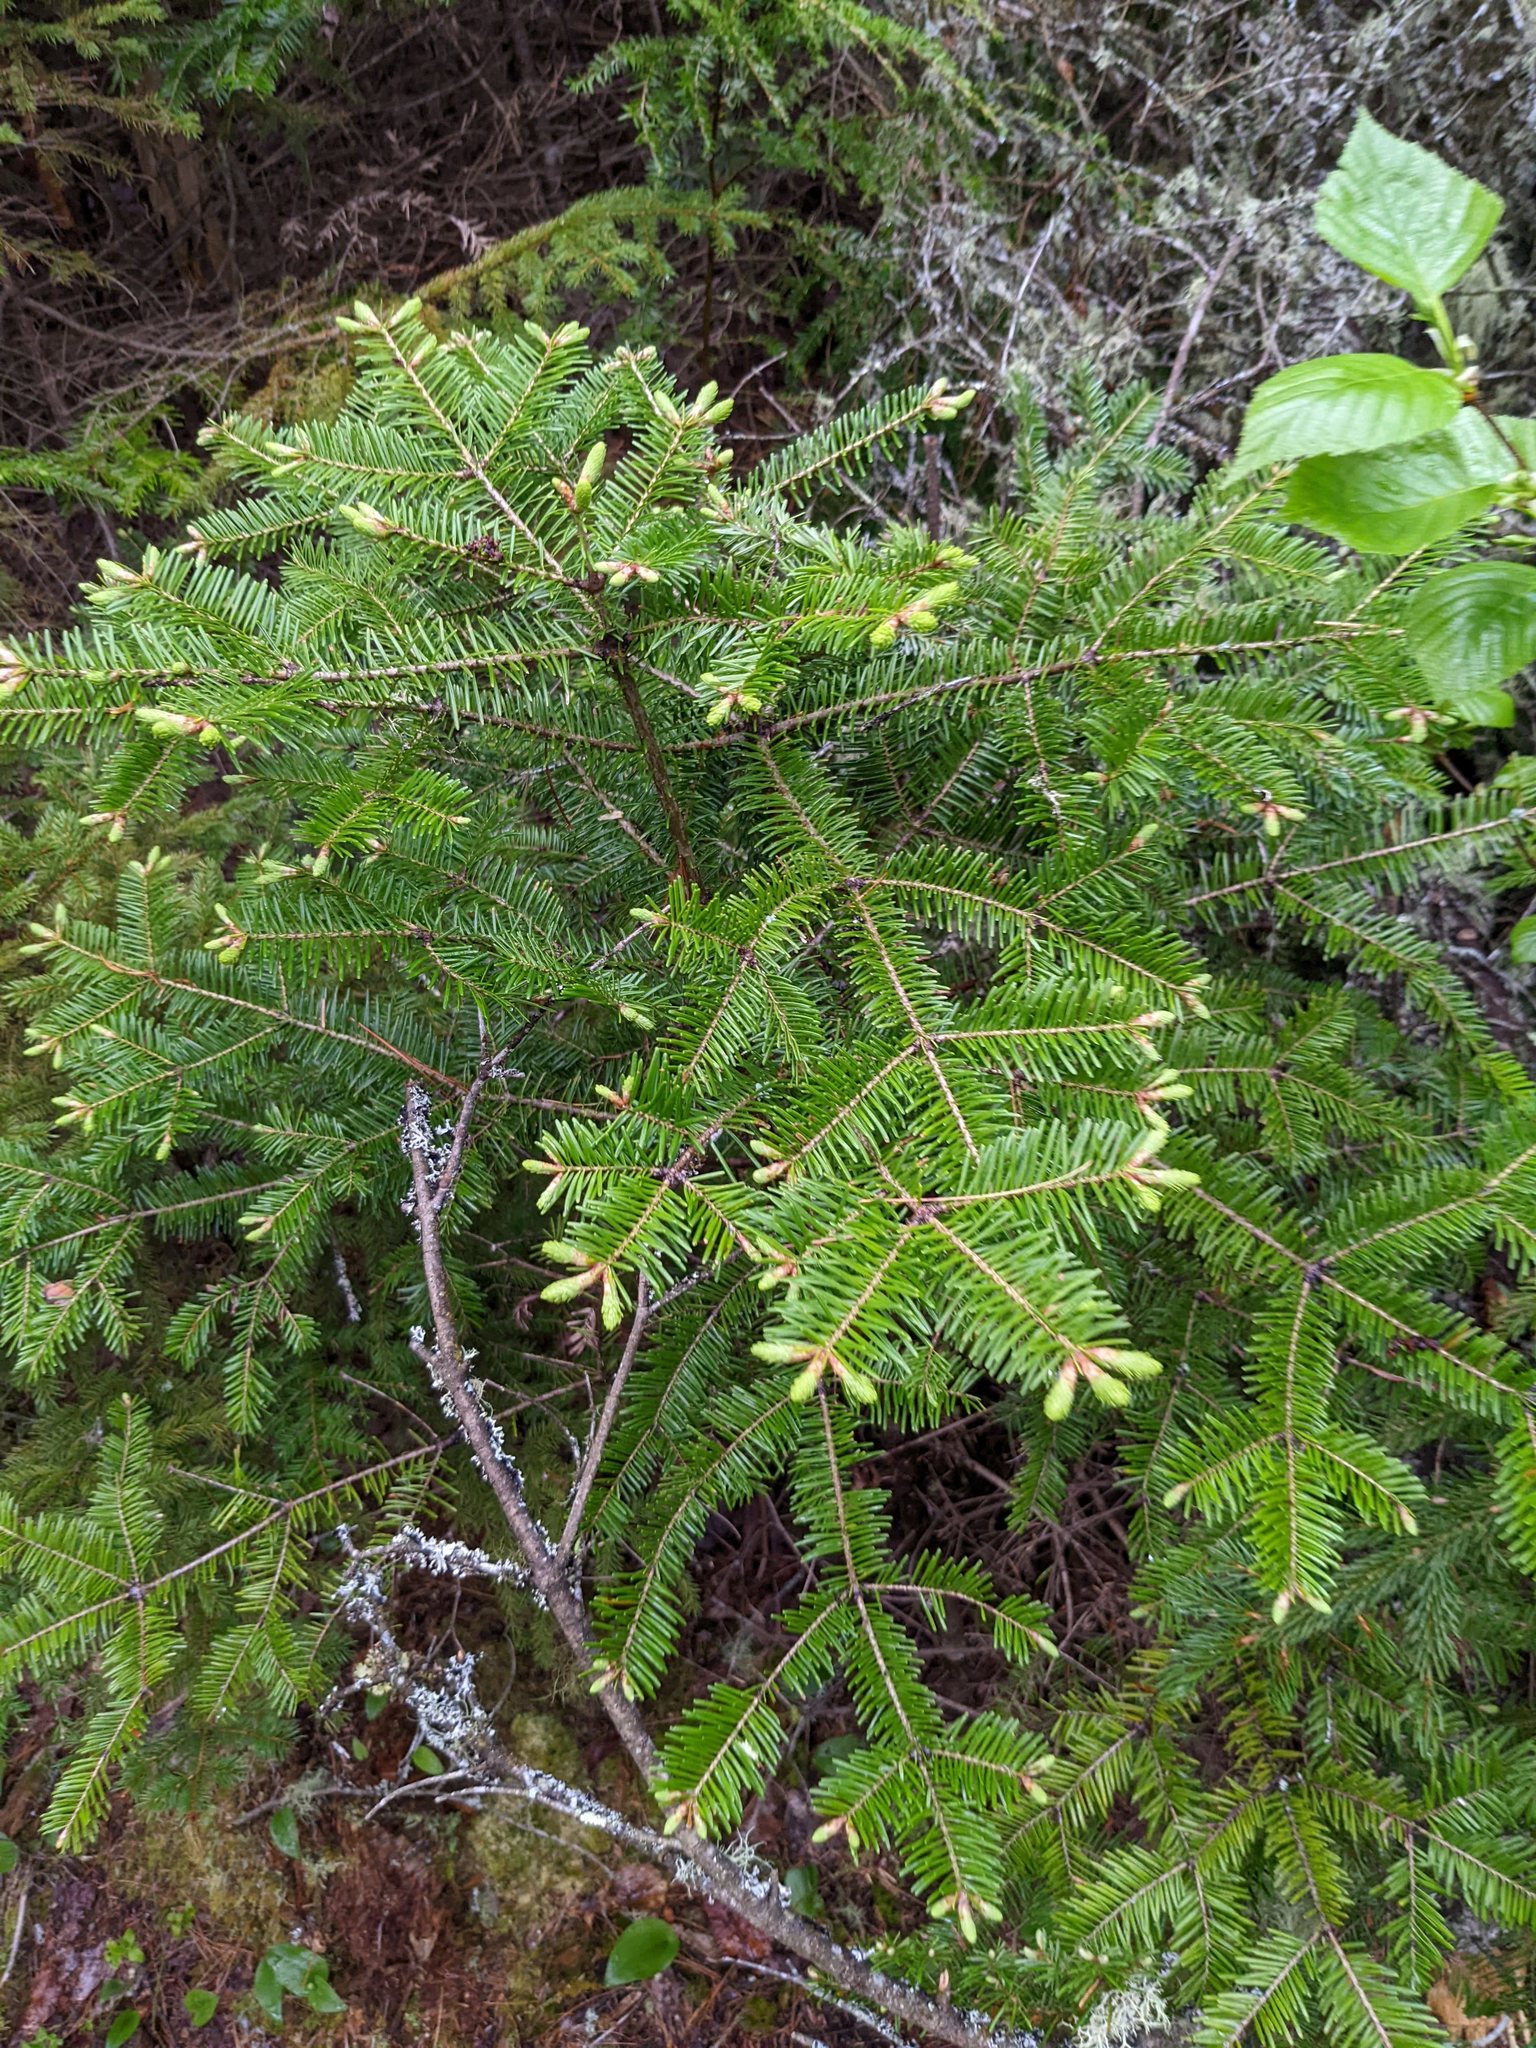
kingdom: Plantae
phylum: Tracheophyta
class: Pinopsida
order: Pinales
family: Pinaceae
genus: Abies
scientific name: Abies balsamea
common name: Balsam fir
